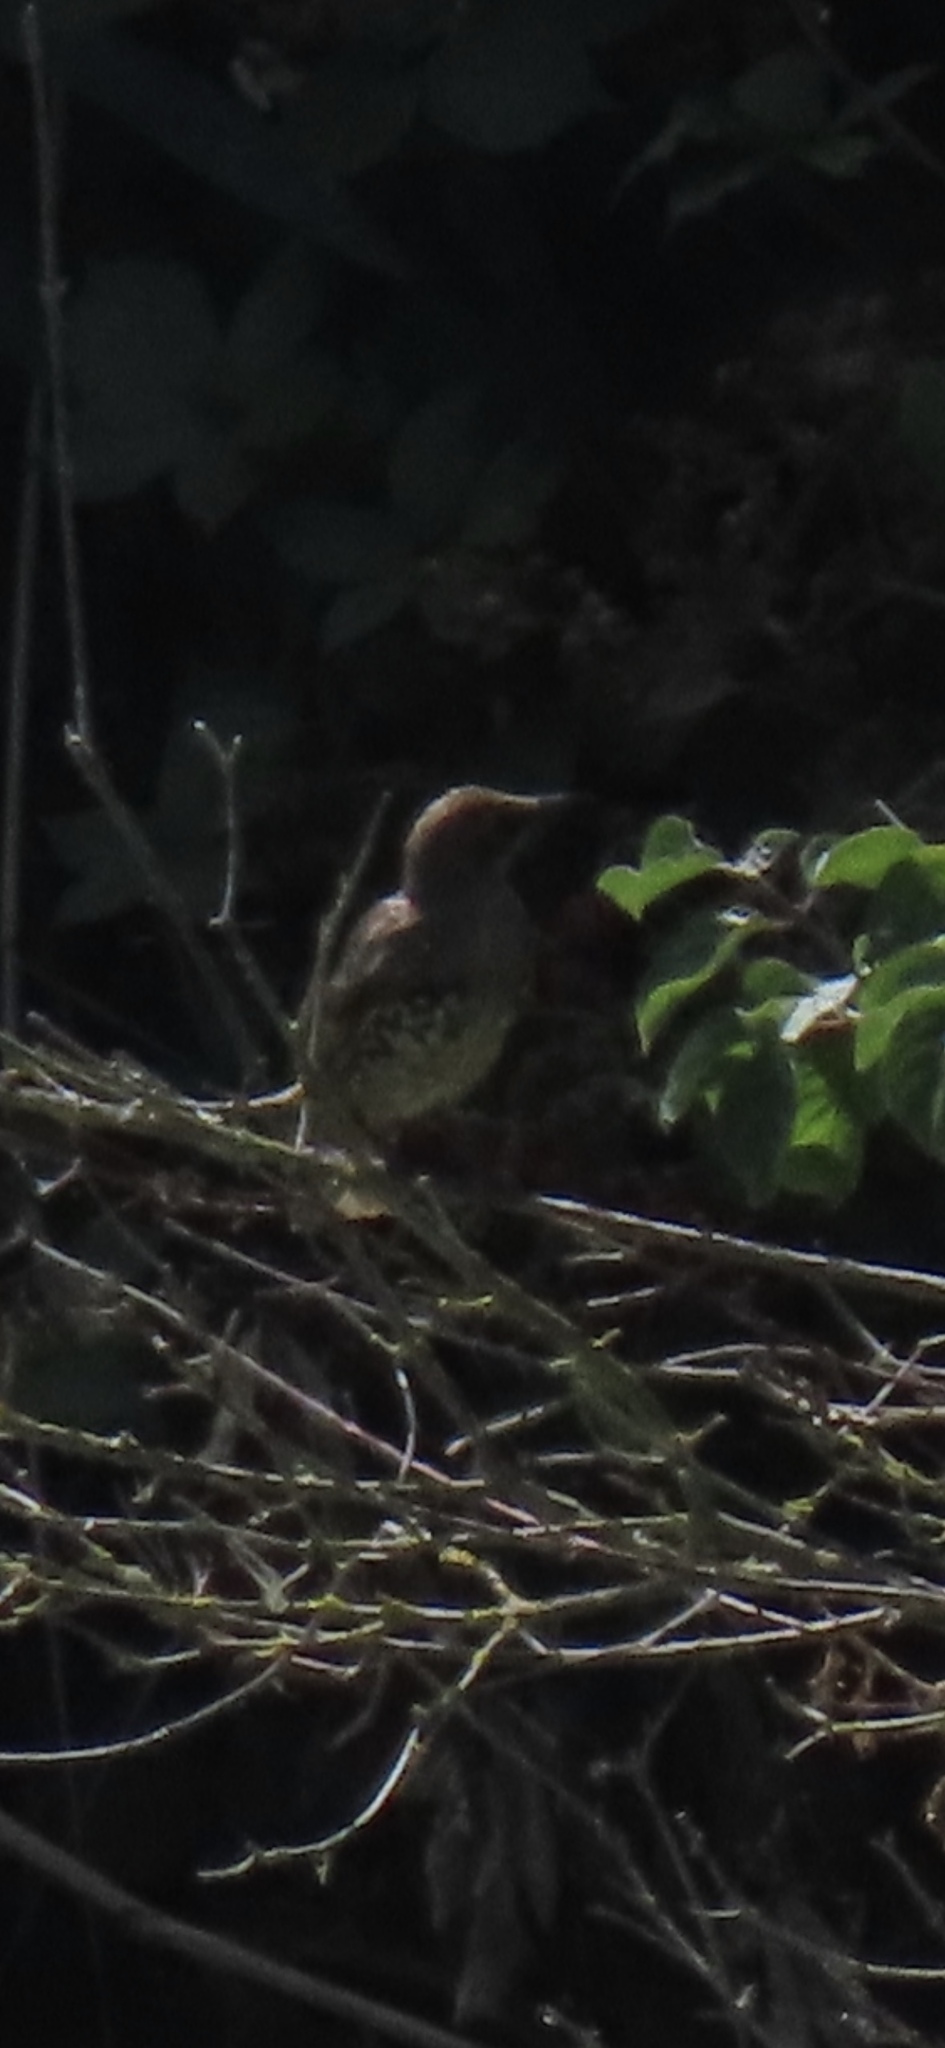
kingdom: Animalia
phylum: Chordata
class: Aves
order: Passeriformes
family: Sturnidae
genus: Sturnus
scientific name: Sturnus vulgaris
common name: Common starling
